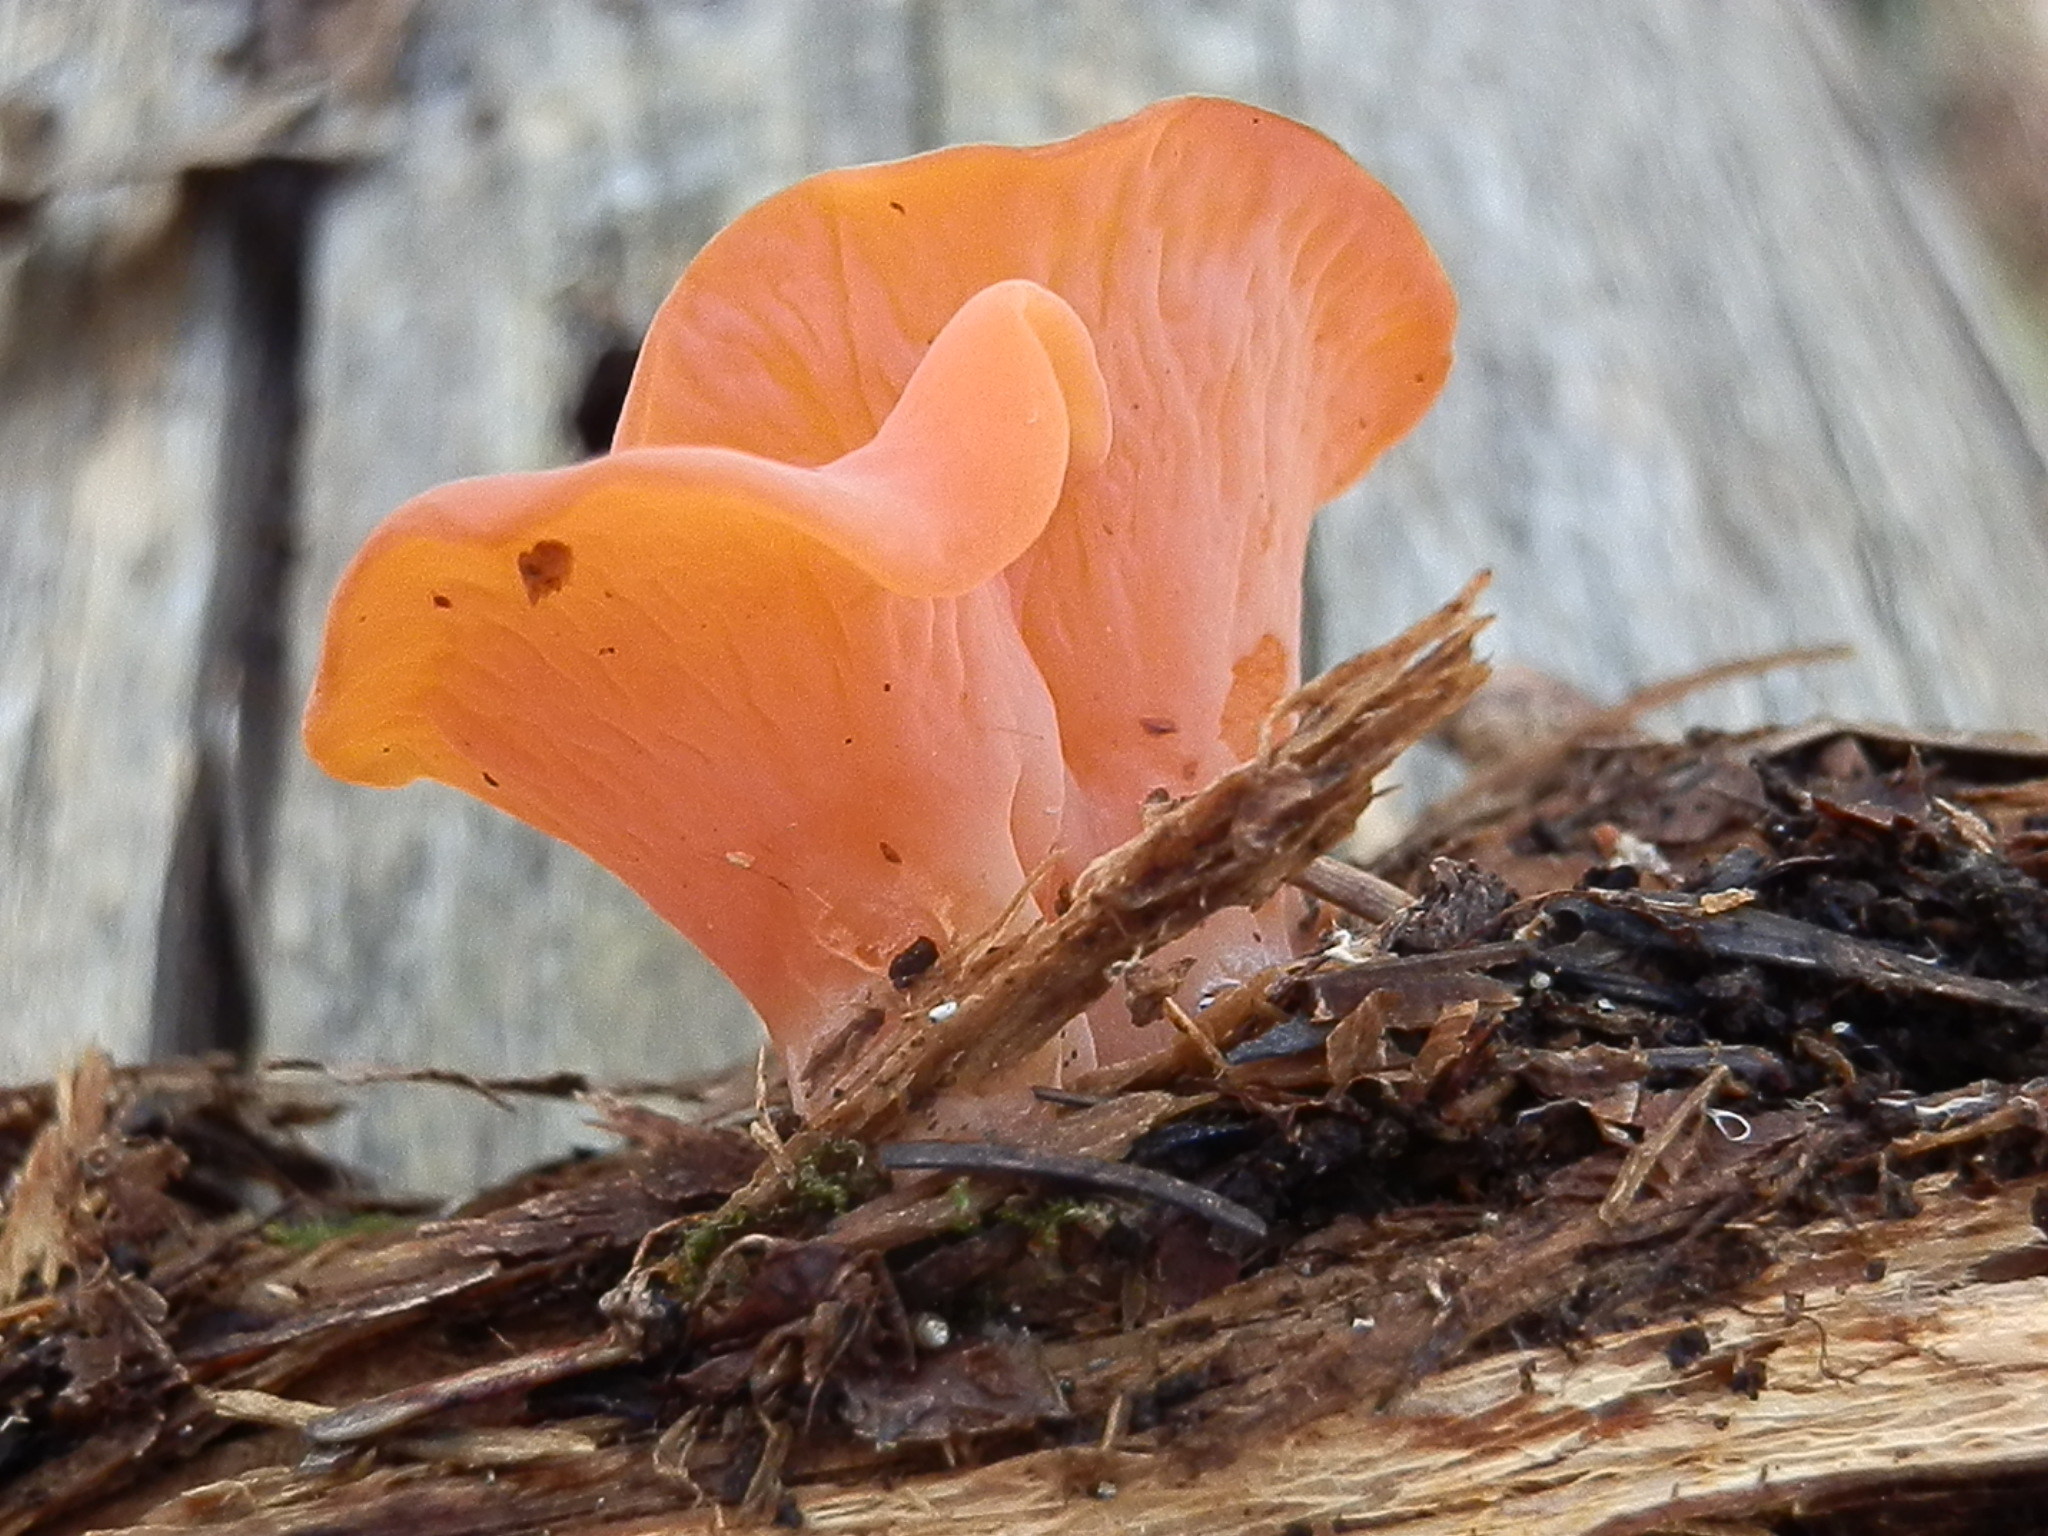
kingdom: Fungi
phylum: Basidiomycota
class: Agaricomycetes
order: Auriculariales
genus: Guepinia
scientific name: Guepinia helvelloides
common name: Salmon salad
